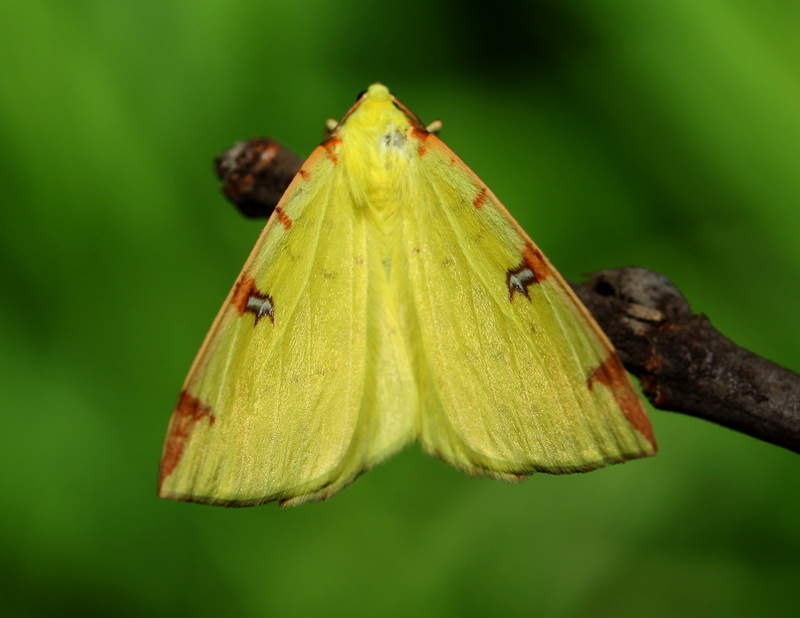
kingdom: Animalia
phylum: Arthropoda
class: Insecta
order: Lepidoptera
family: Geometridae
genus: Opisthograptis
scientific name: Opisthograptis luteolata
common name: Brimstone moth
